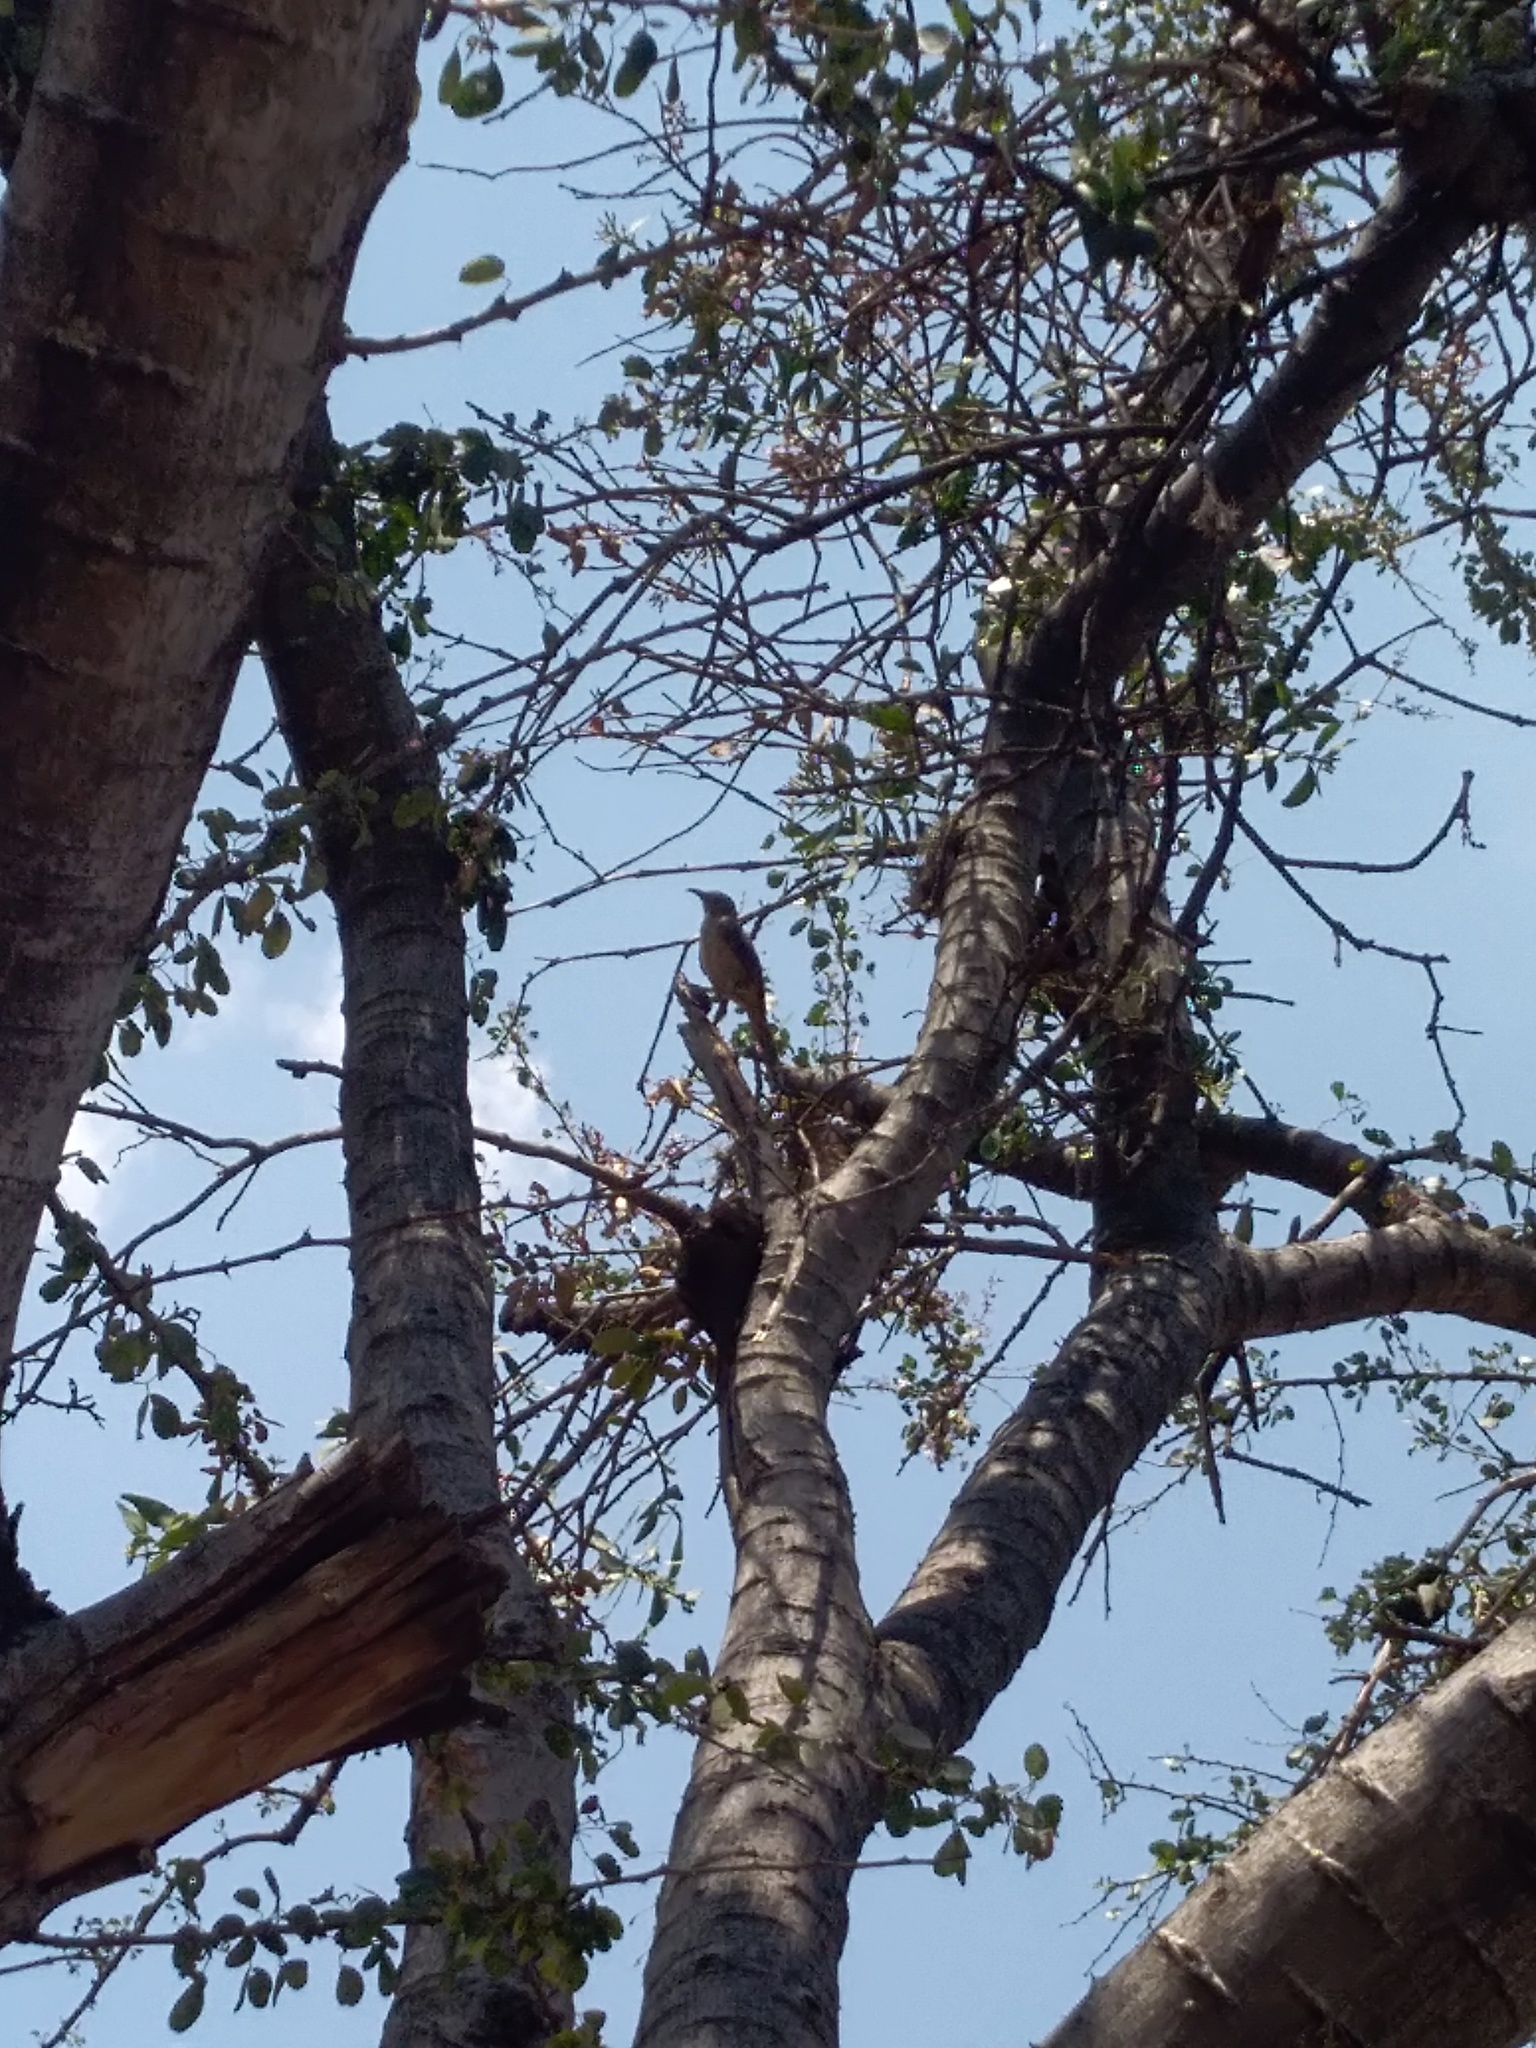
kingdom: Animalia
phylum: Chordata
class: Aves
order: Passeriformes
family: Mimidae
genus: Toxostoma
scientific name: Toxostoma curvirostre
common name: Curve-billed thrasher
